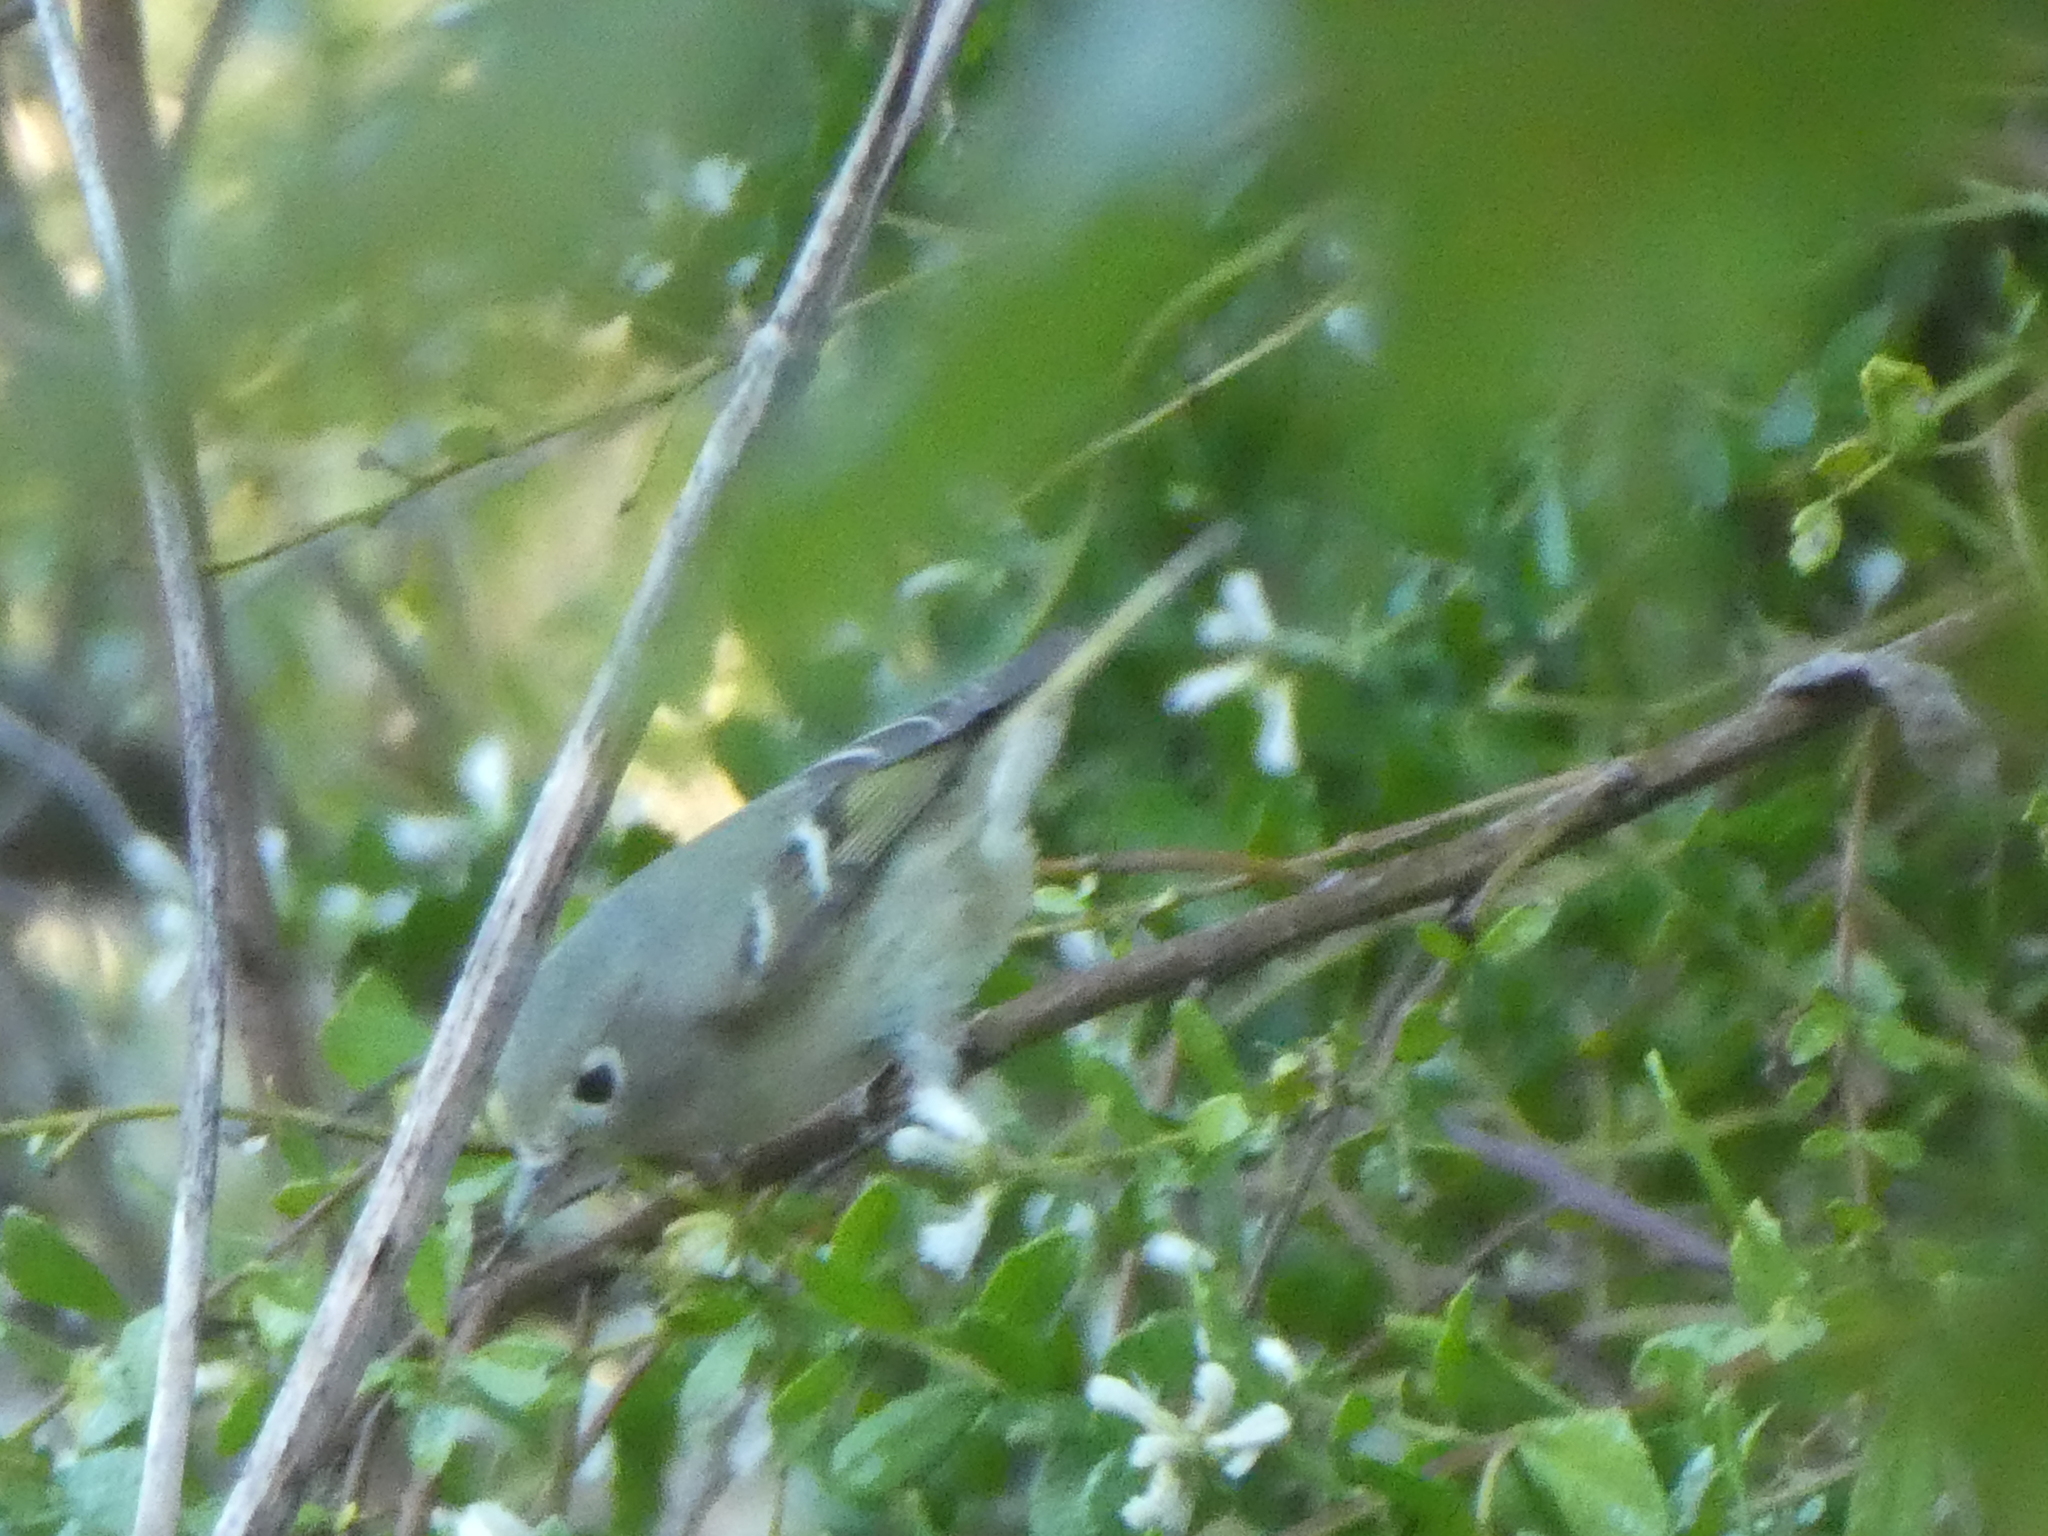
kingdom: Animalia
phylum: Chordata
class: Aves
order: Passeriformes
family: Regulidae
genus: Regulus
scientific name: Regulus calendula
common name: Ruby-crowned kinglet
